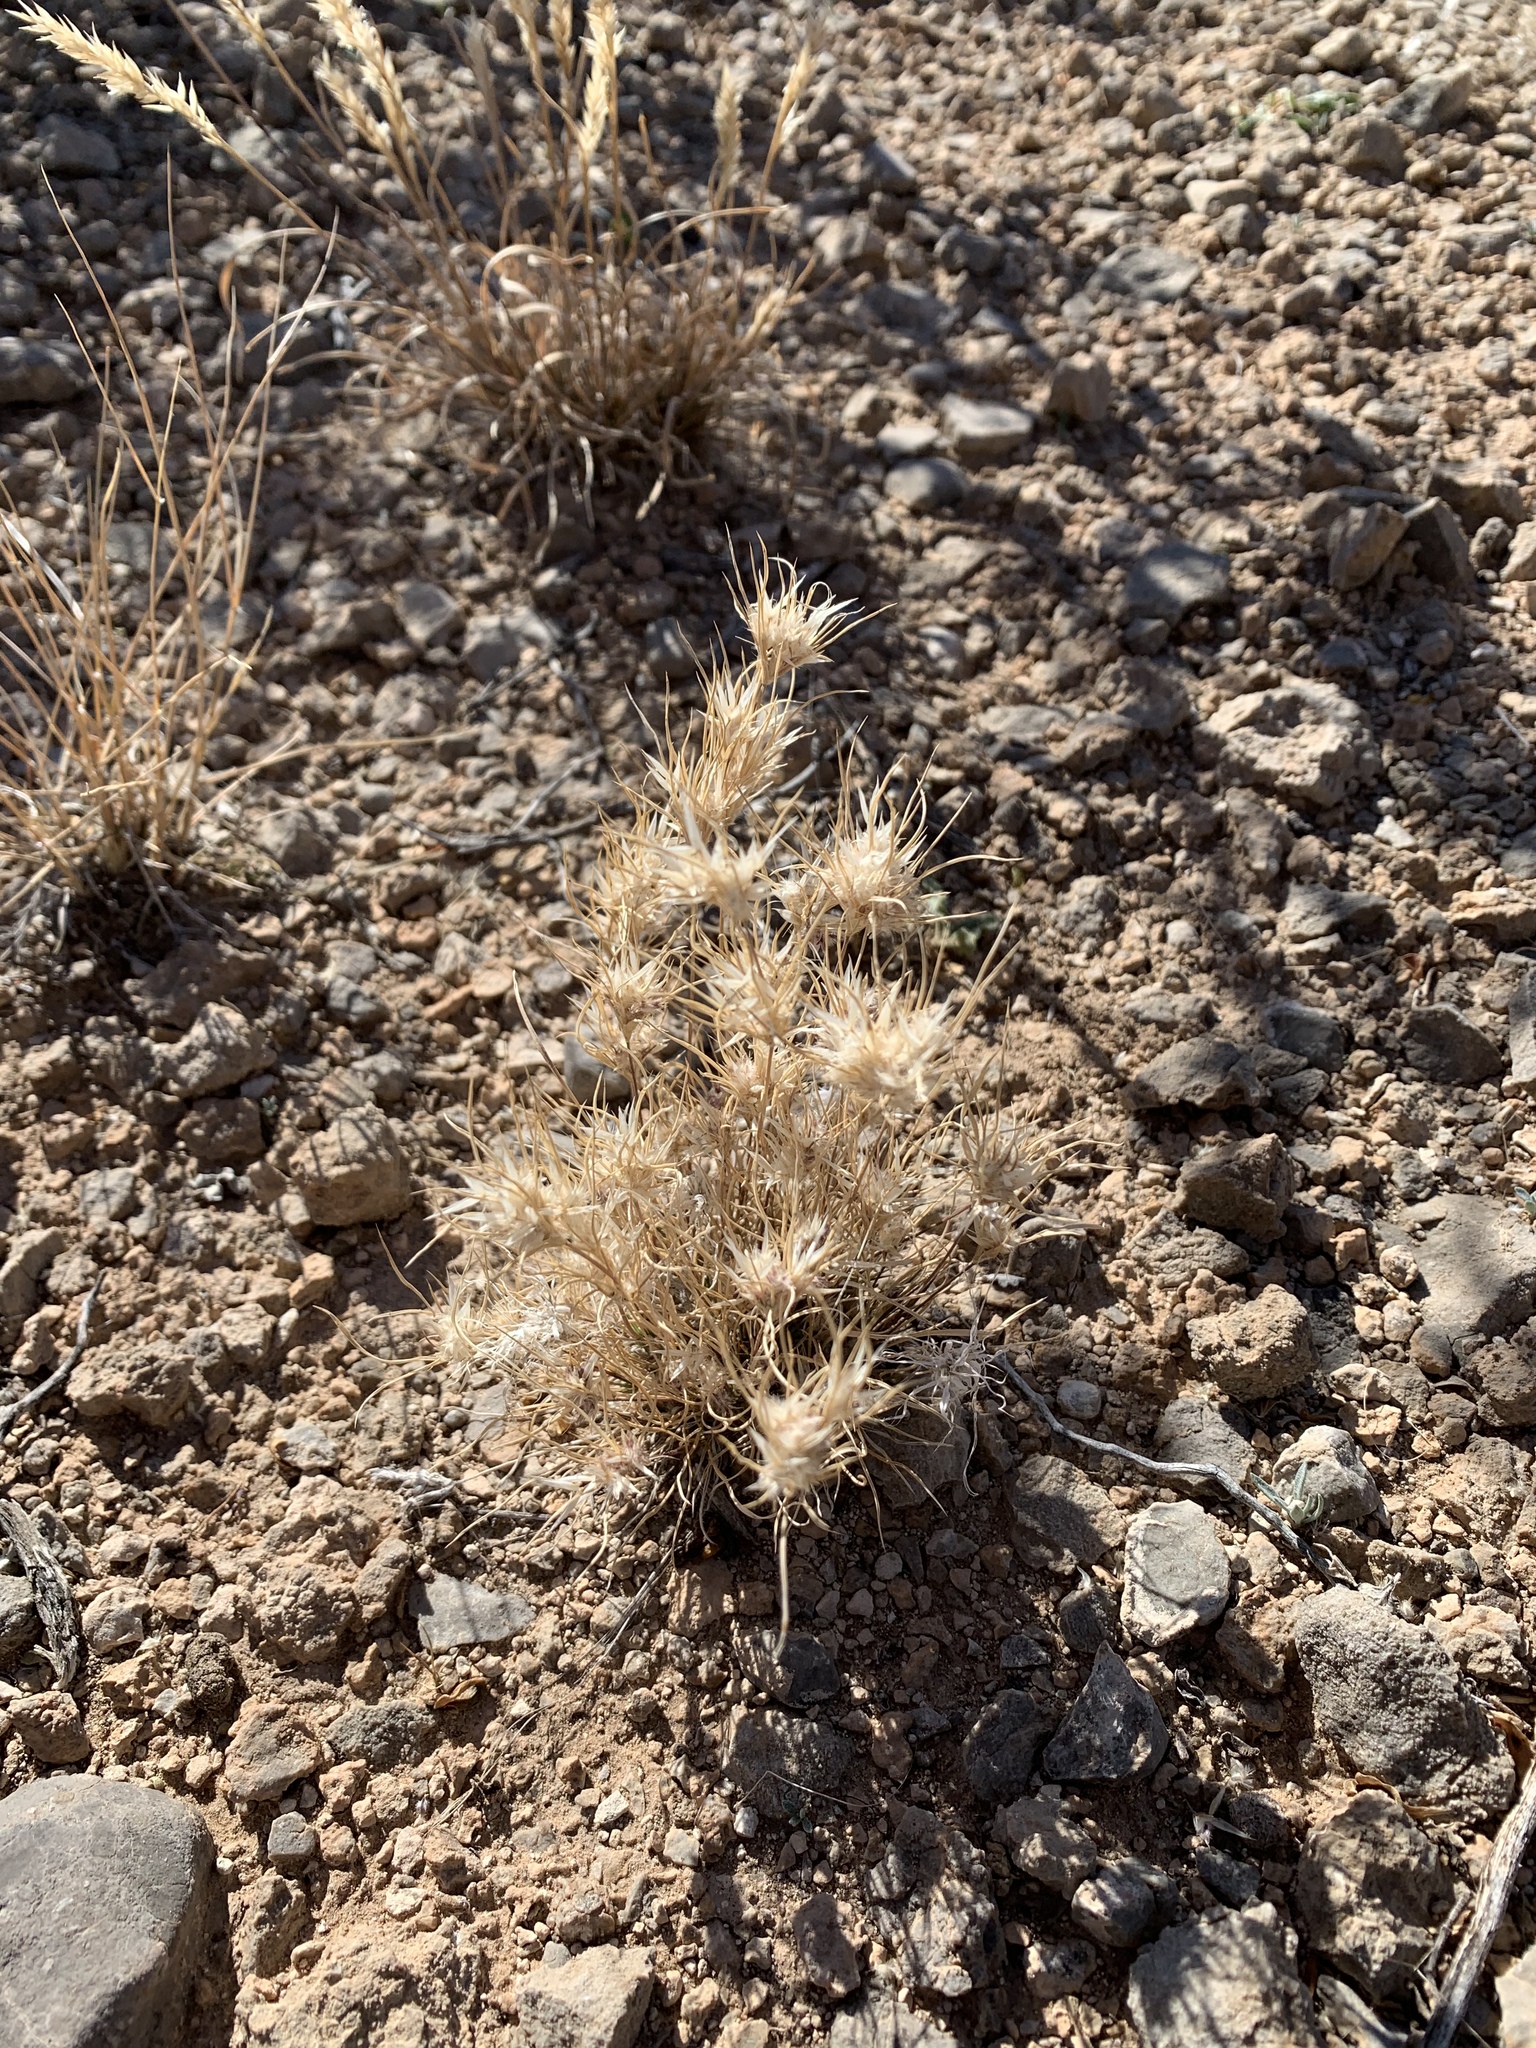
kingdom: Plantae
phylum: Tracheophyta
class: Liliopsida
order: Poales
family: Poaceae
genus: Dasyochloa
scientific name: Dasyochloa pulchella
